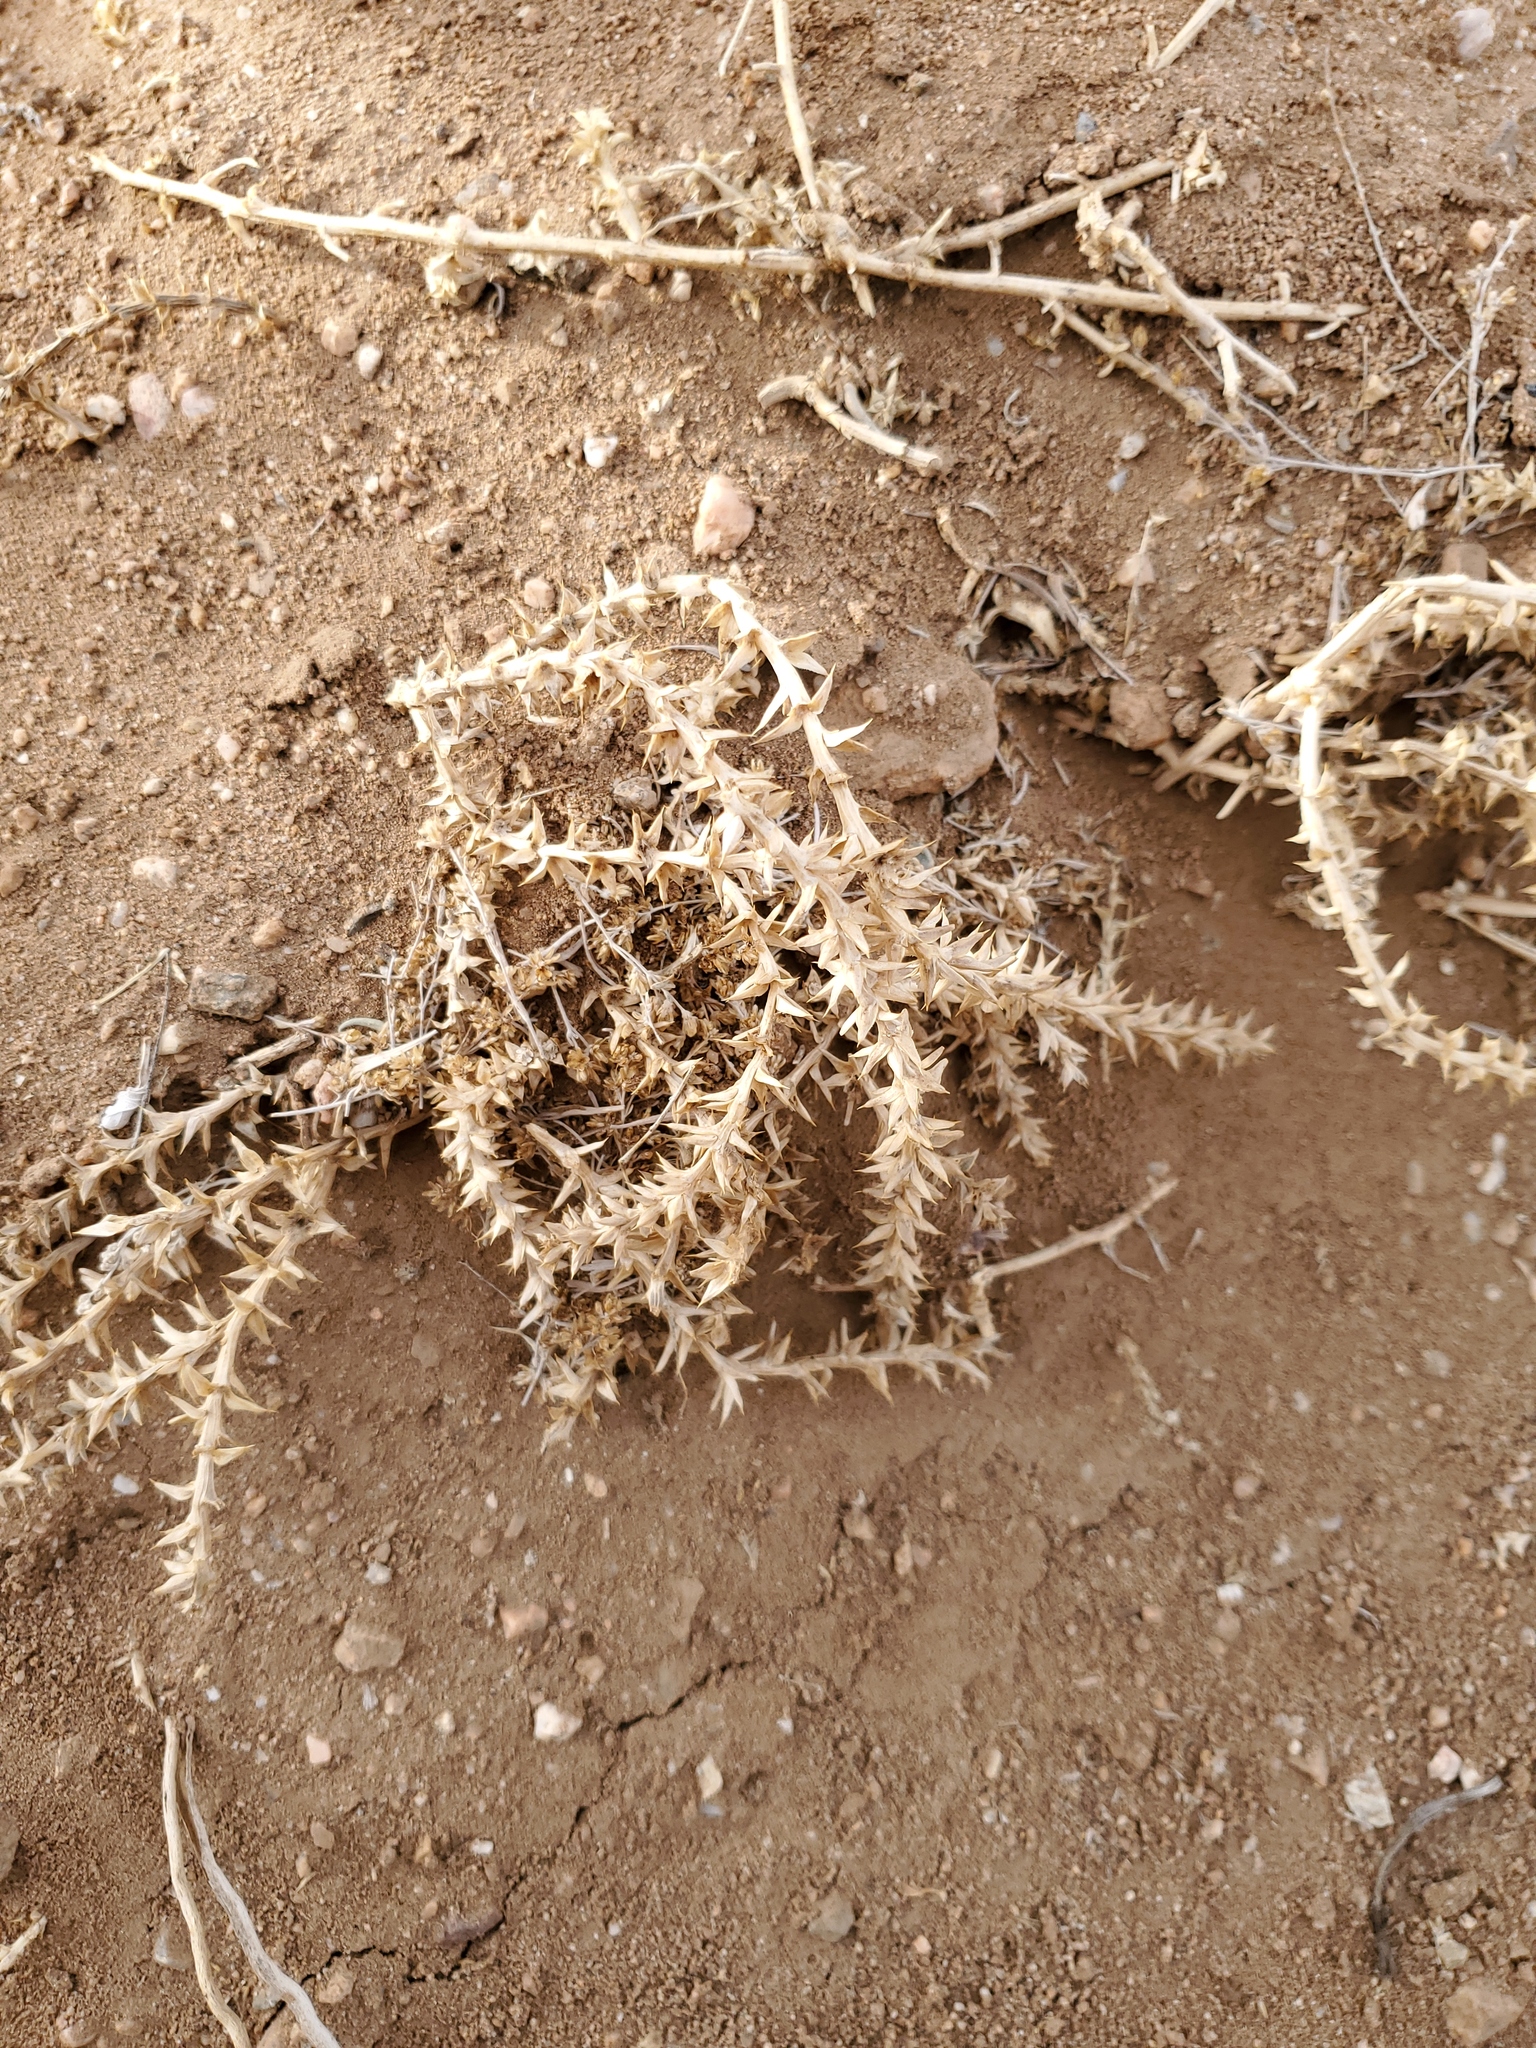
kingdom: Plantae
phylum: Tracheophyta
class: Magnoliopsida
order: Caryophyllales
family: Amaranthaceae
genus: Salsola
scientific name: Salsola tragus
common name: Prickly russian thistle
